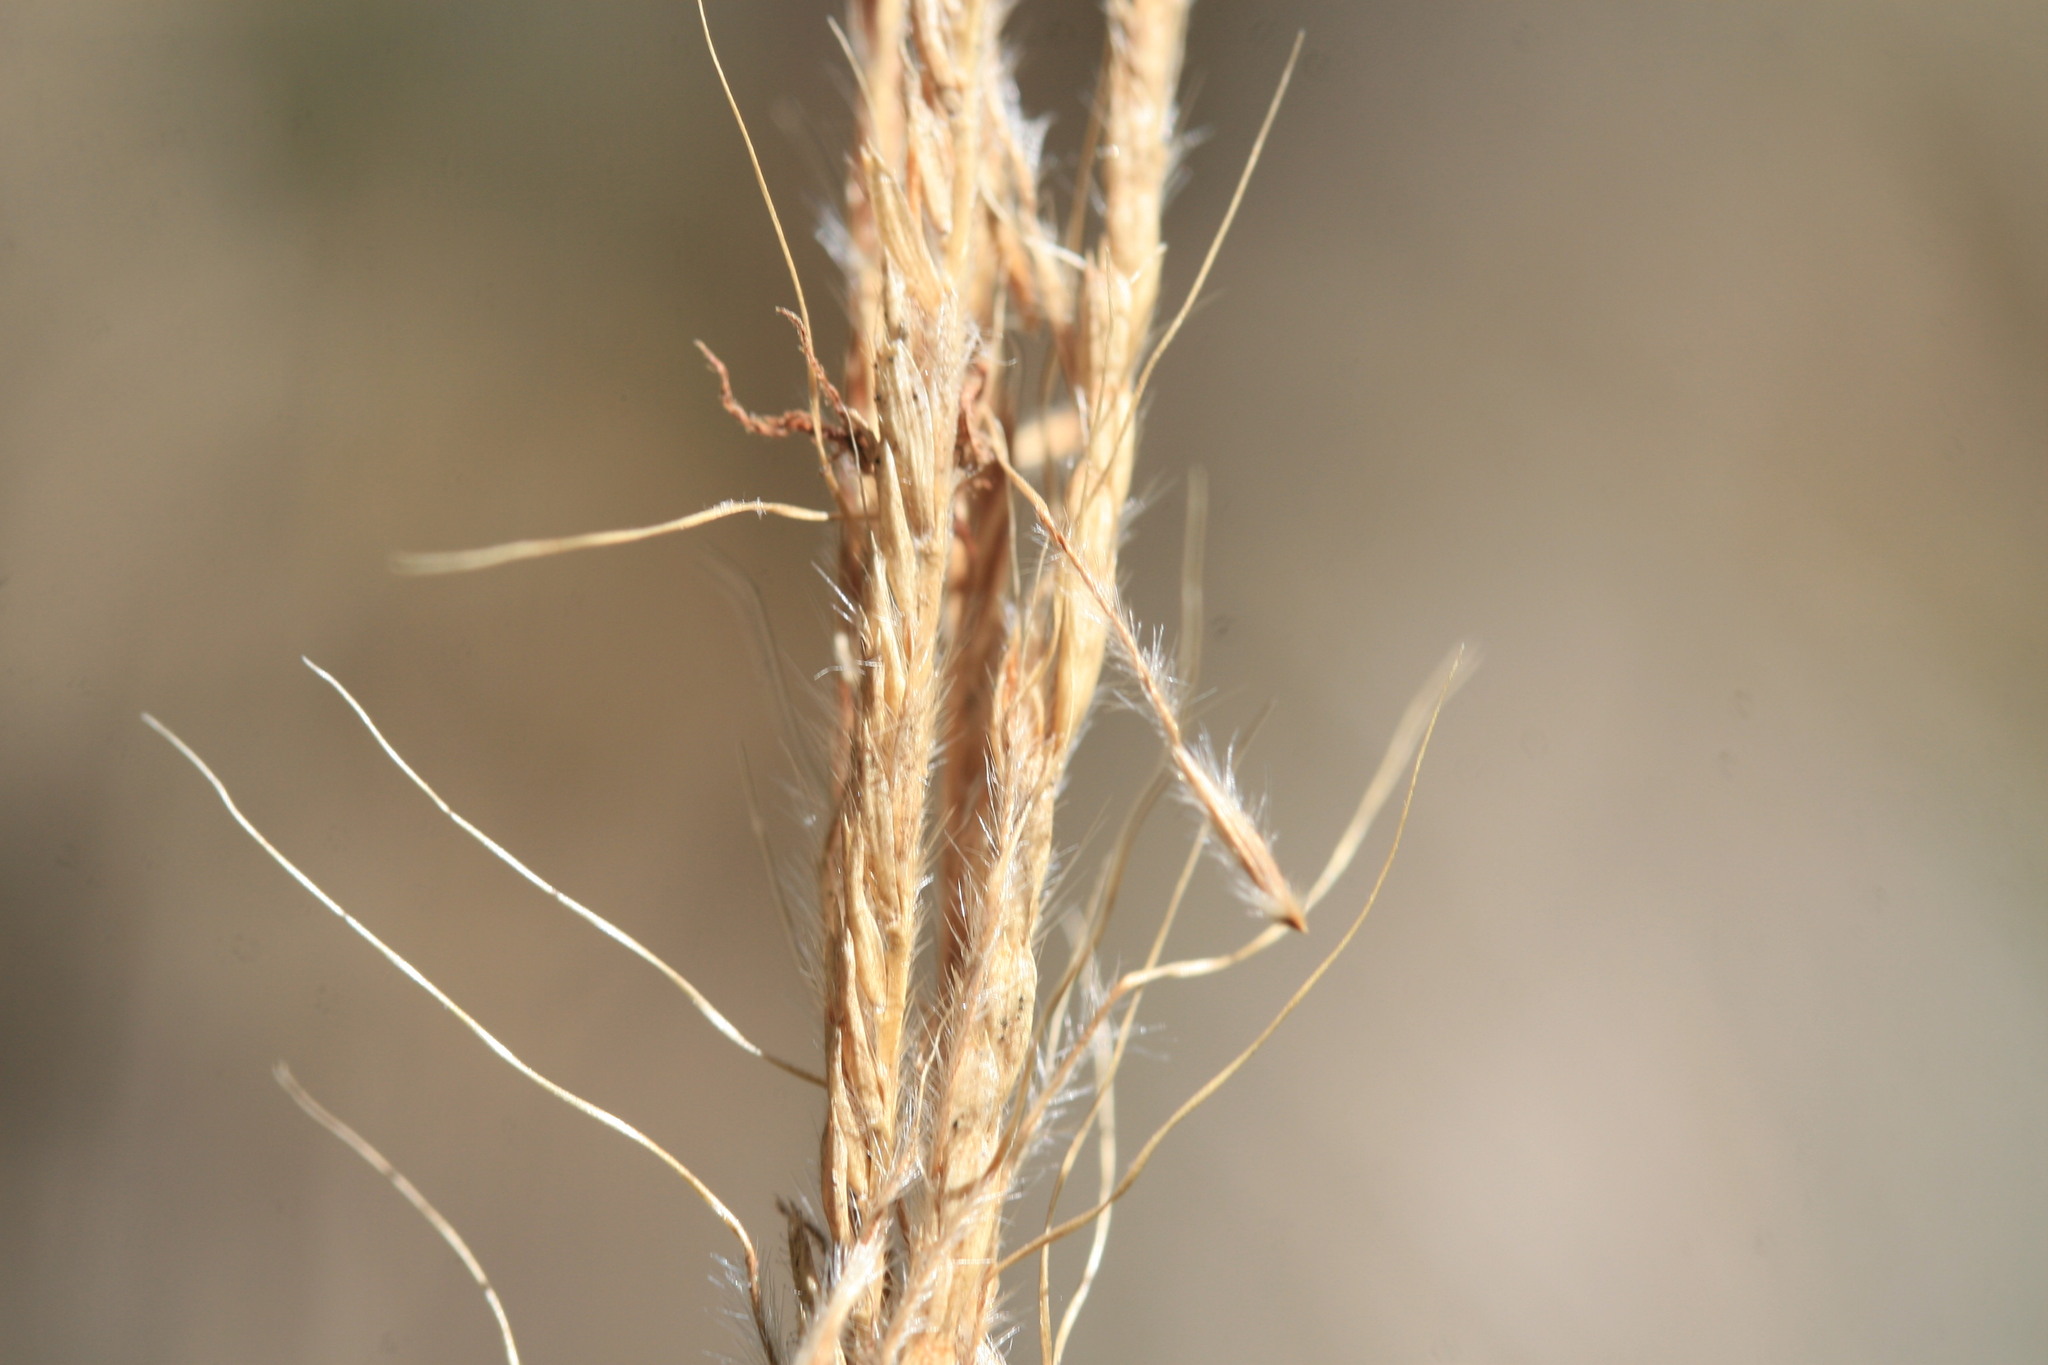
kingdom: Plantae
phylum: Tracheophyta
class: Liliopsida
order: Poales
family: Poaceae
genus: Germainia
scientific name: Germainia truncatiglumis
